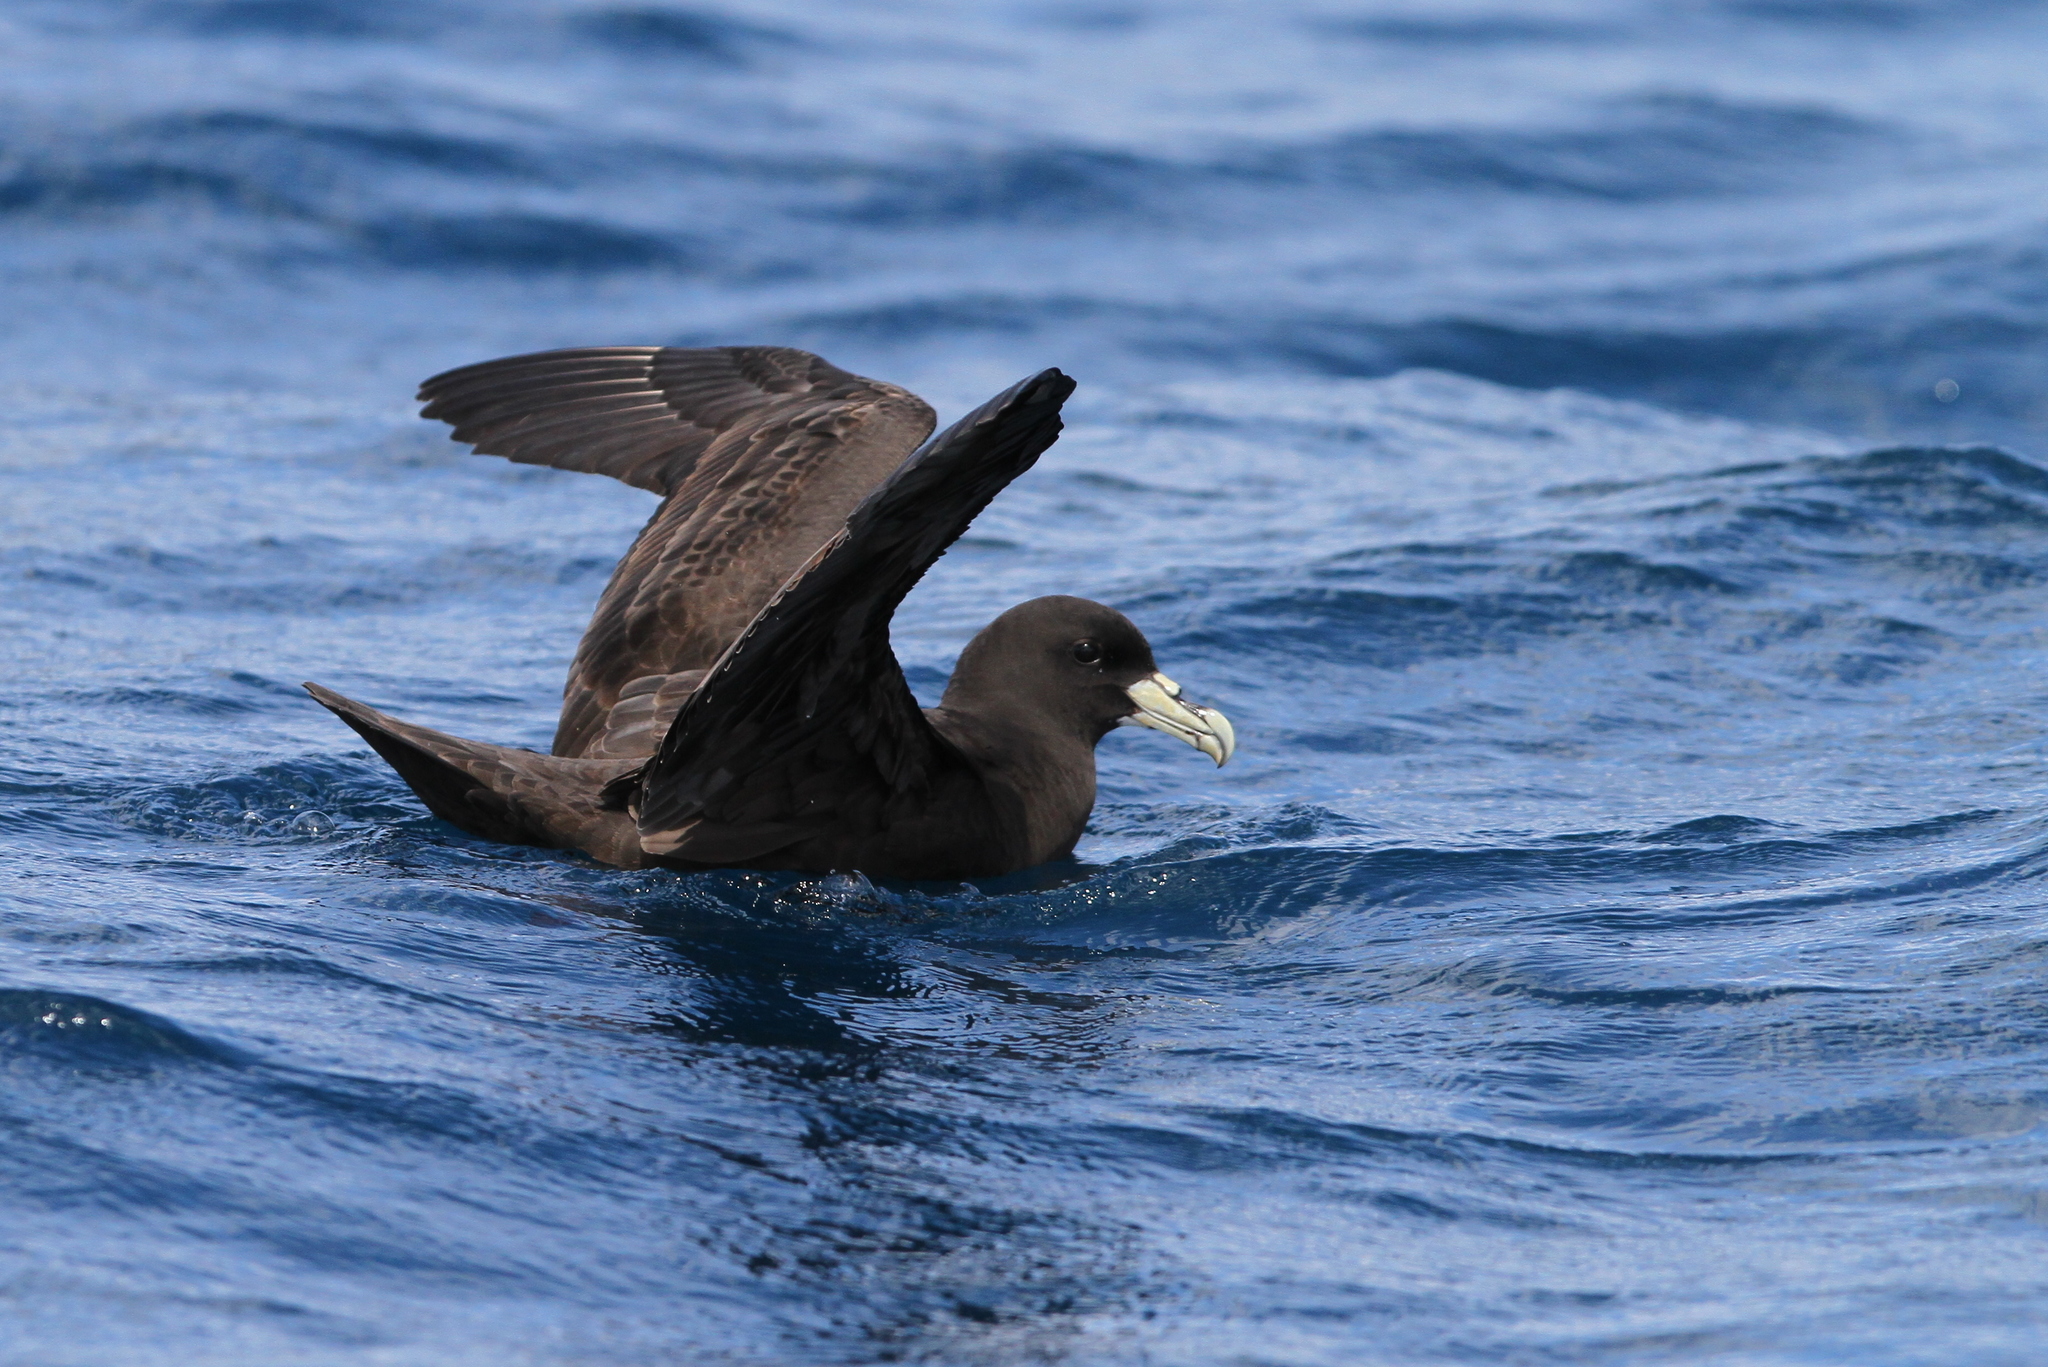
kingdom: Animalia
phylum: Chordata
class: Aves
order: Procellariiformes
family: Procellariidae
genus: Procellaria
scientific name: Procellaria aequinoctialis
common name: White-chinned petrel
